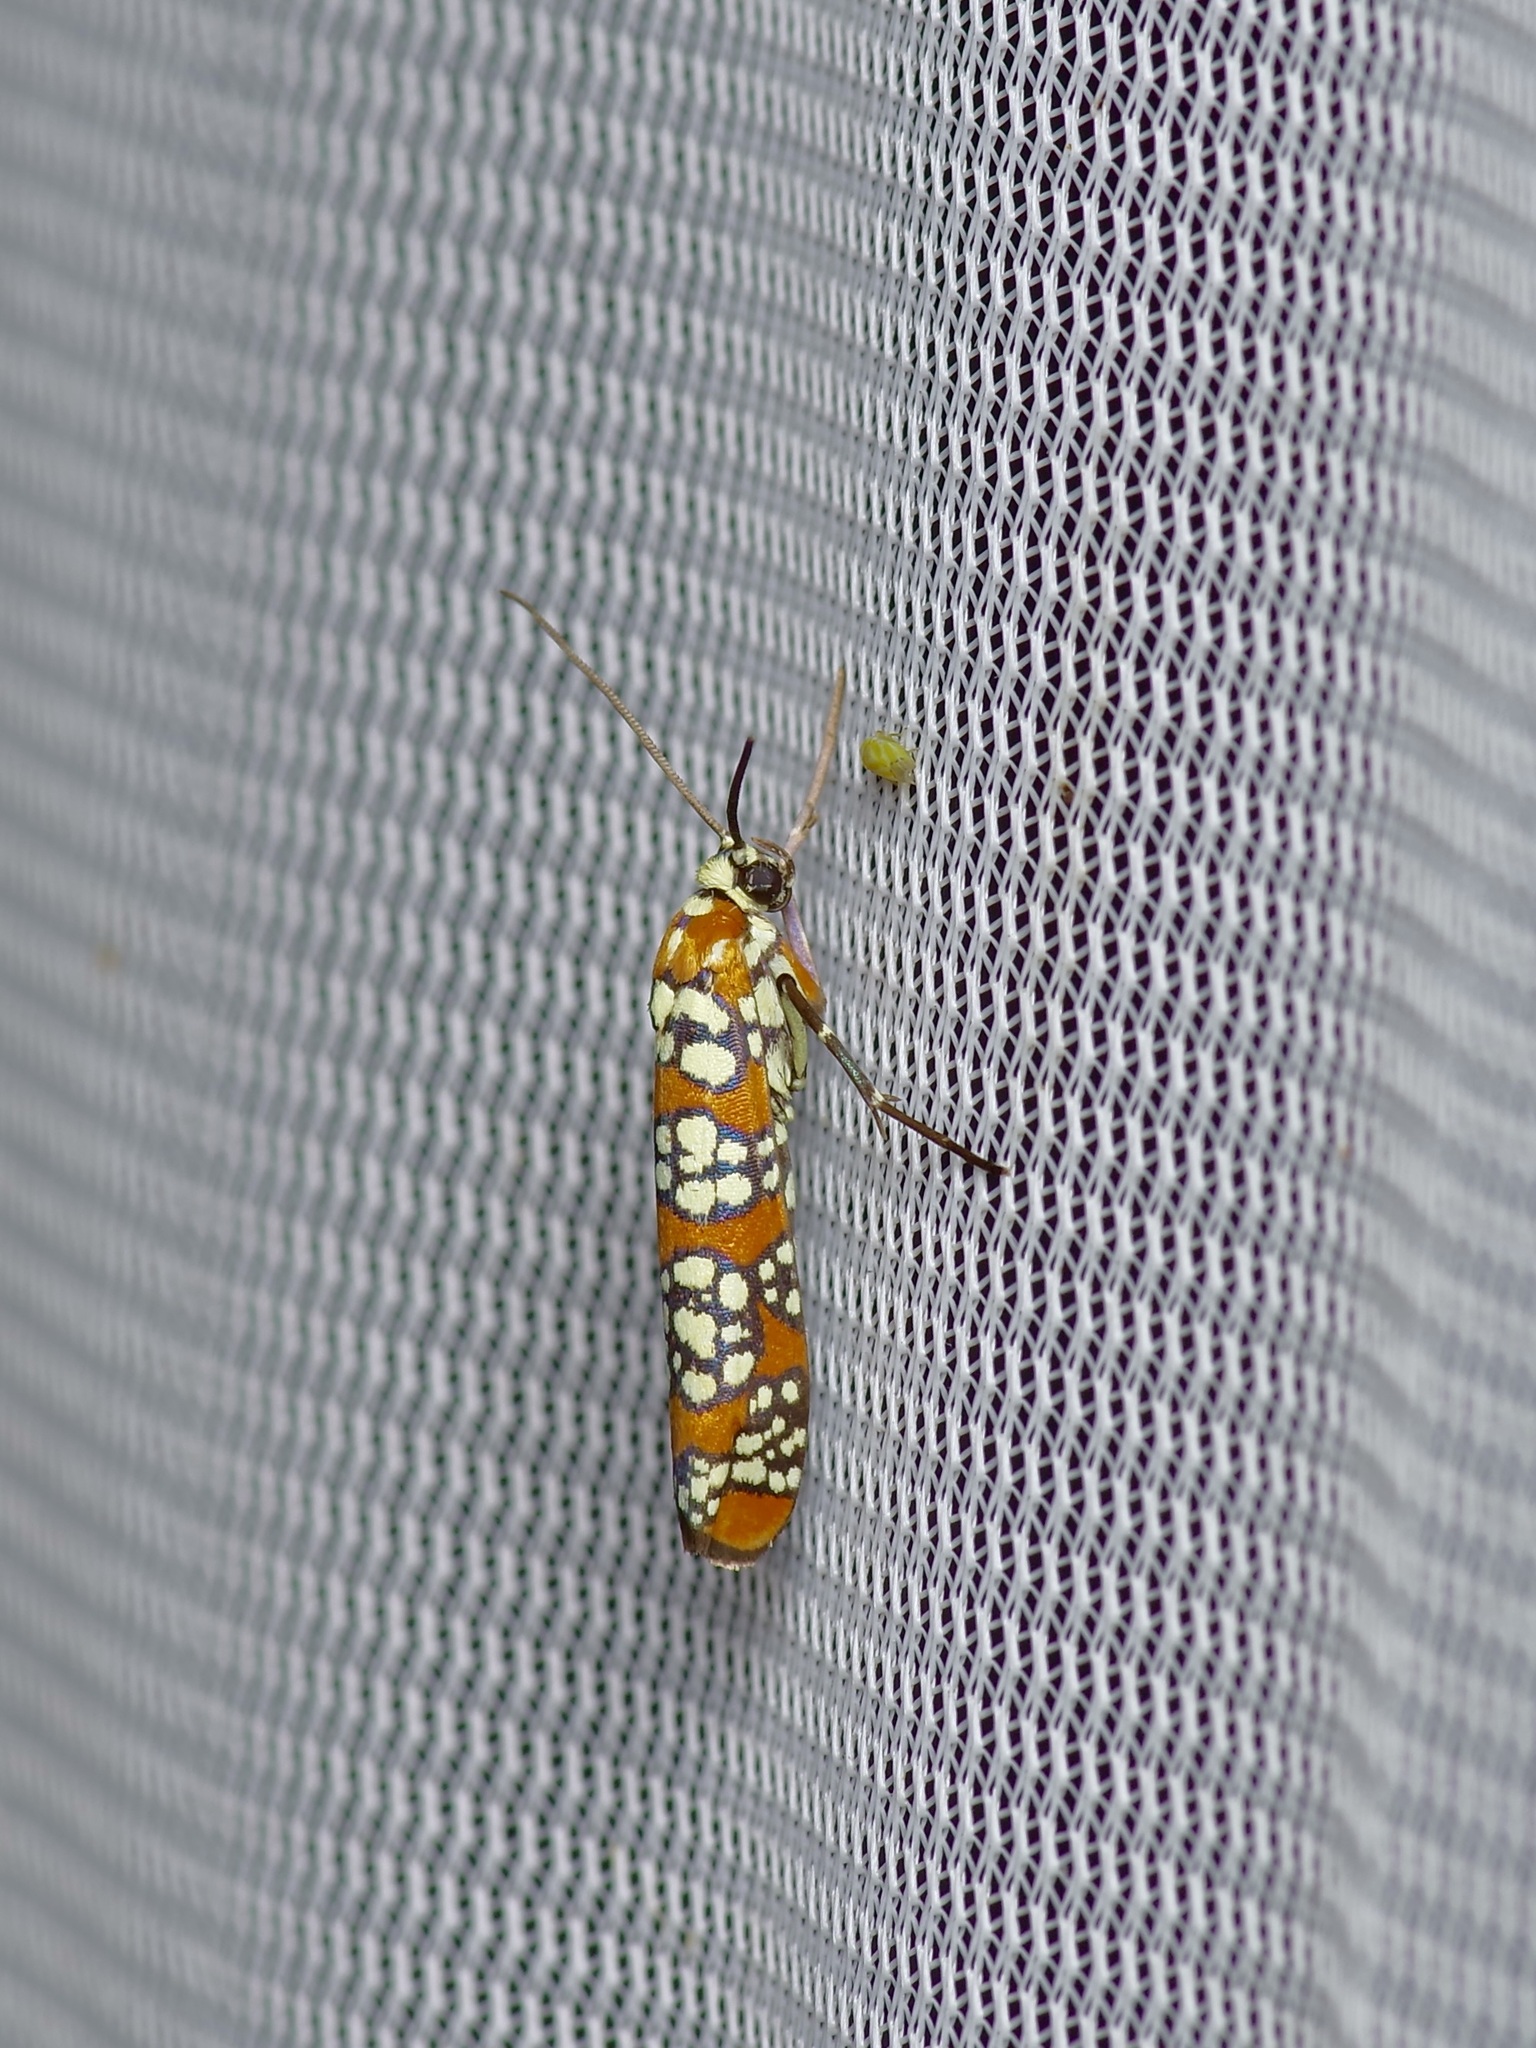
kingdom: Animalia
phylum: Arthropoda
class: Insecta
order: Lepidoptera
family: Attevidae
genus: Atteva
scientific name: Atteva punctella
